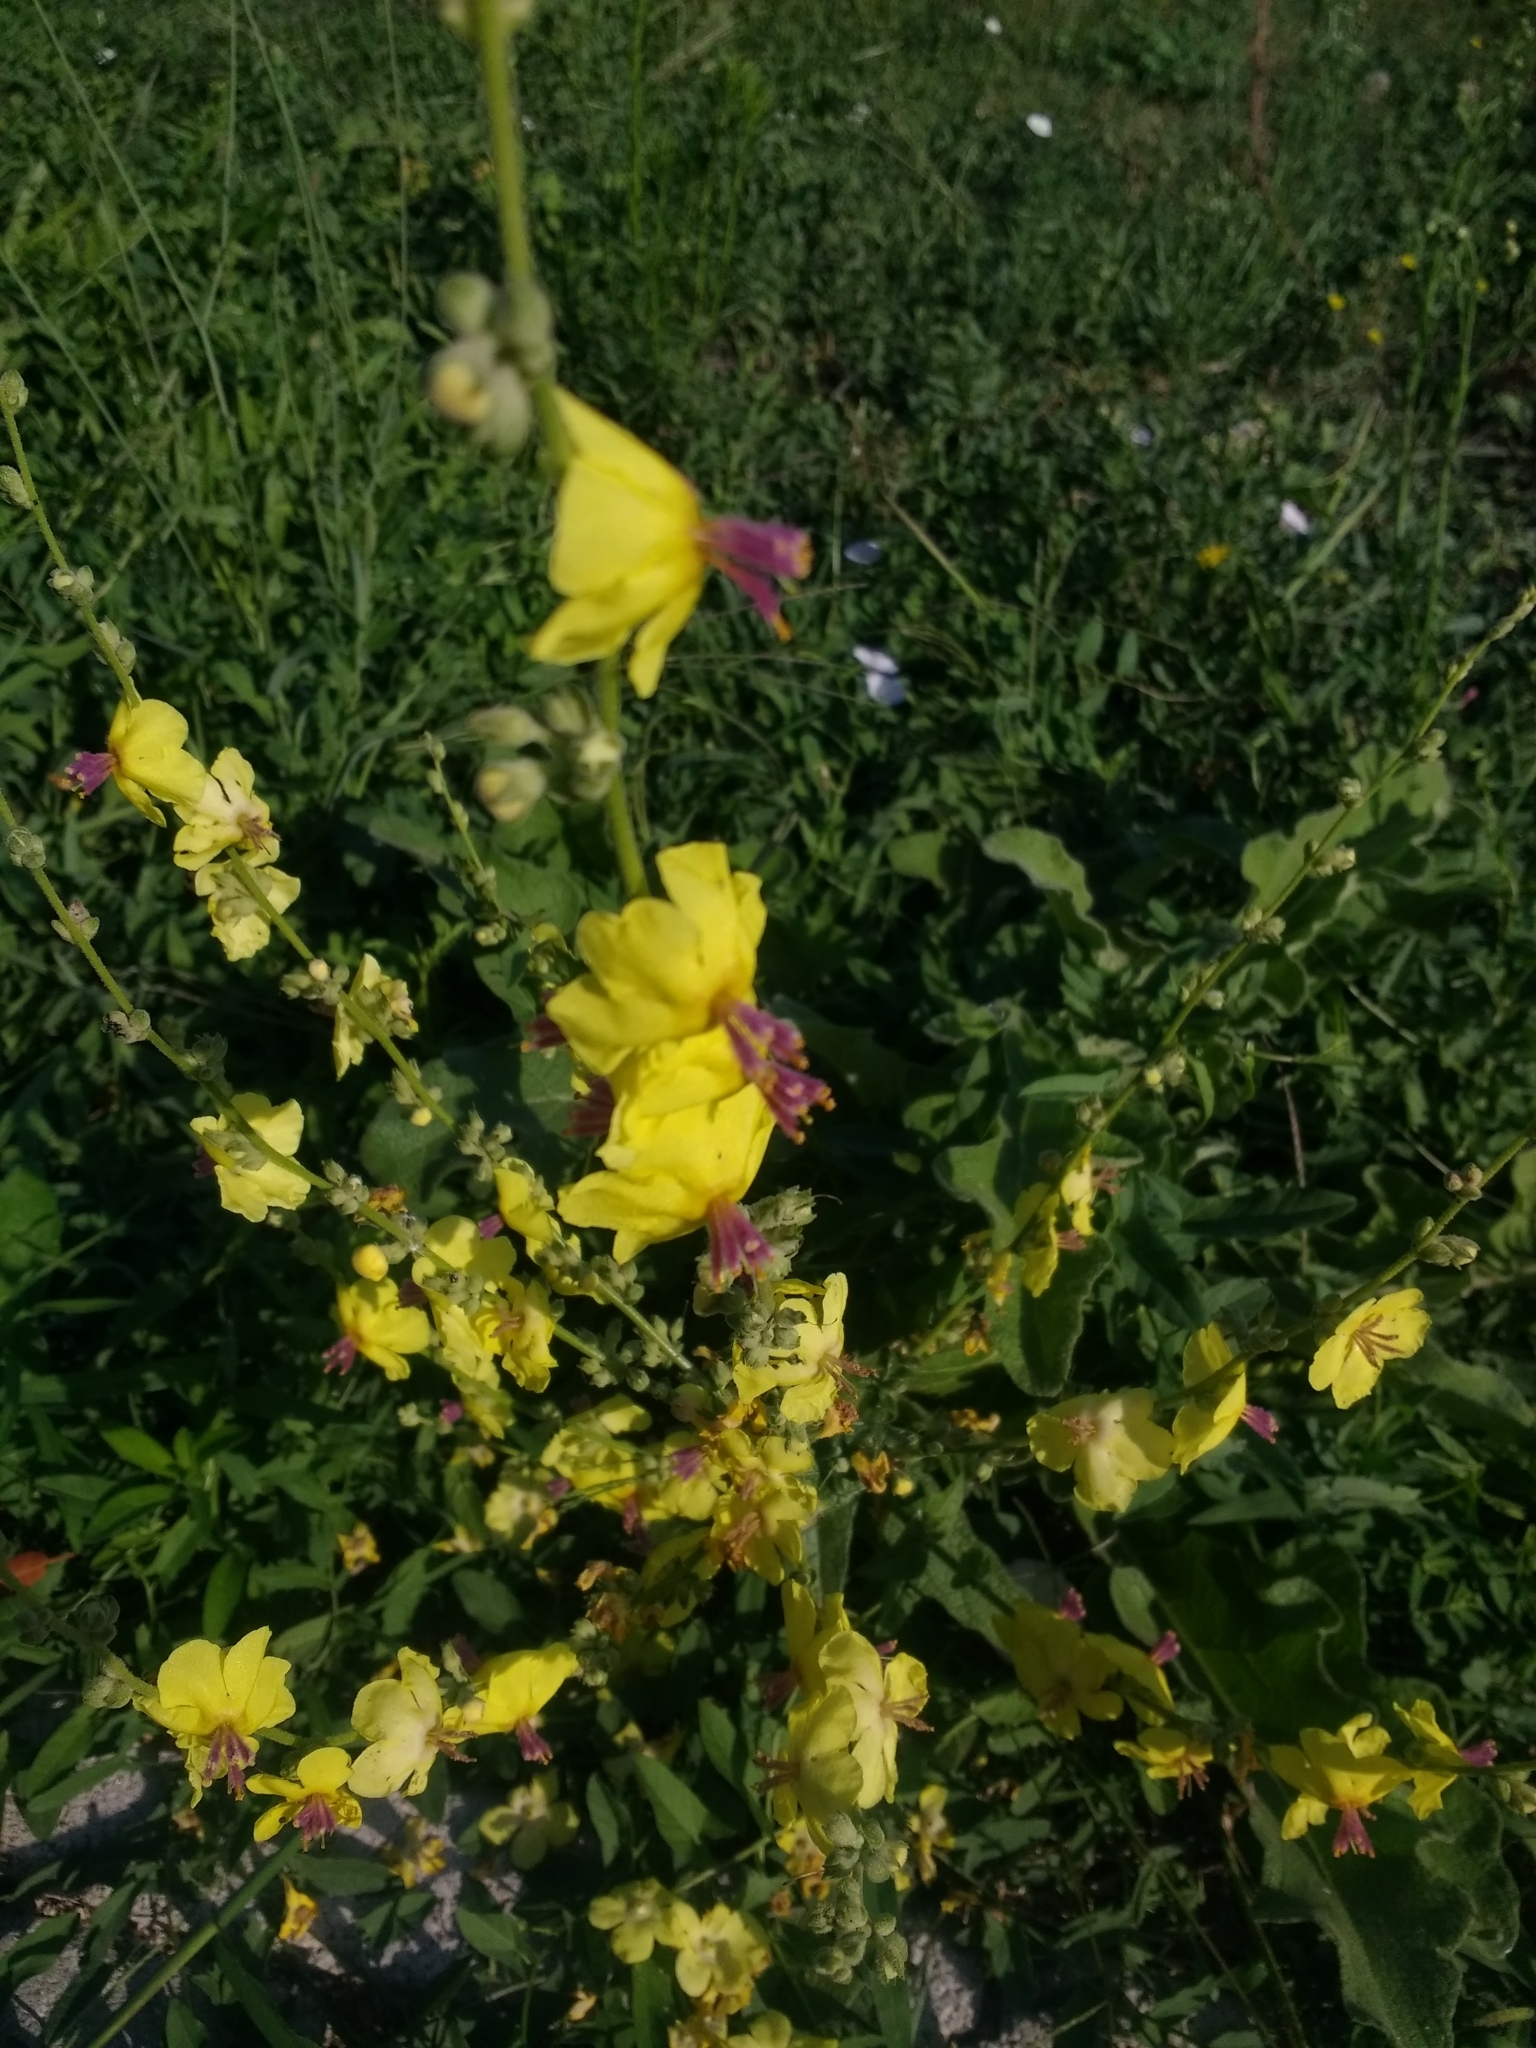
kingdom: Plantae
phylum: Tracheophyta
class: Magnoliopsida
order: Lamiales
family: Scrophulariaceae
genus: Verbascum
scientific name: Verbascum sinuatum
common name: Wavyleaf mullein
